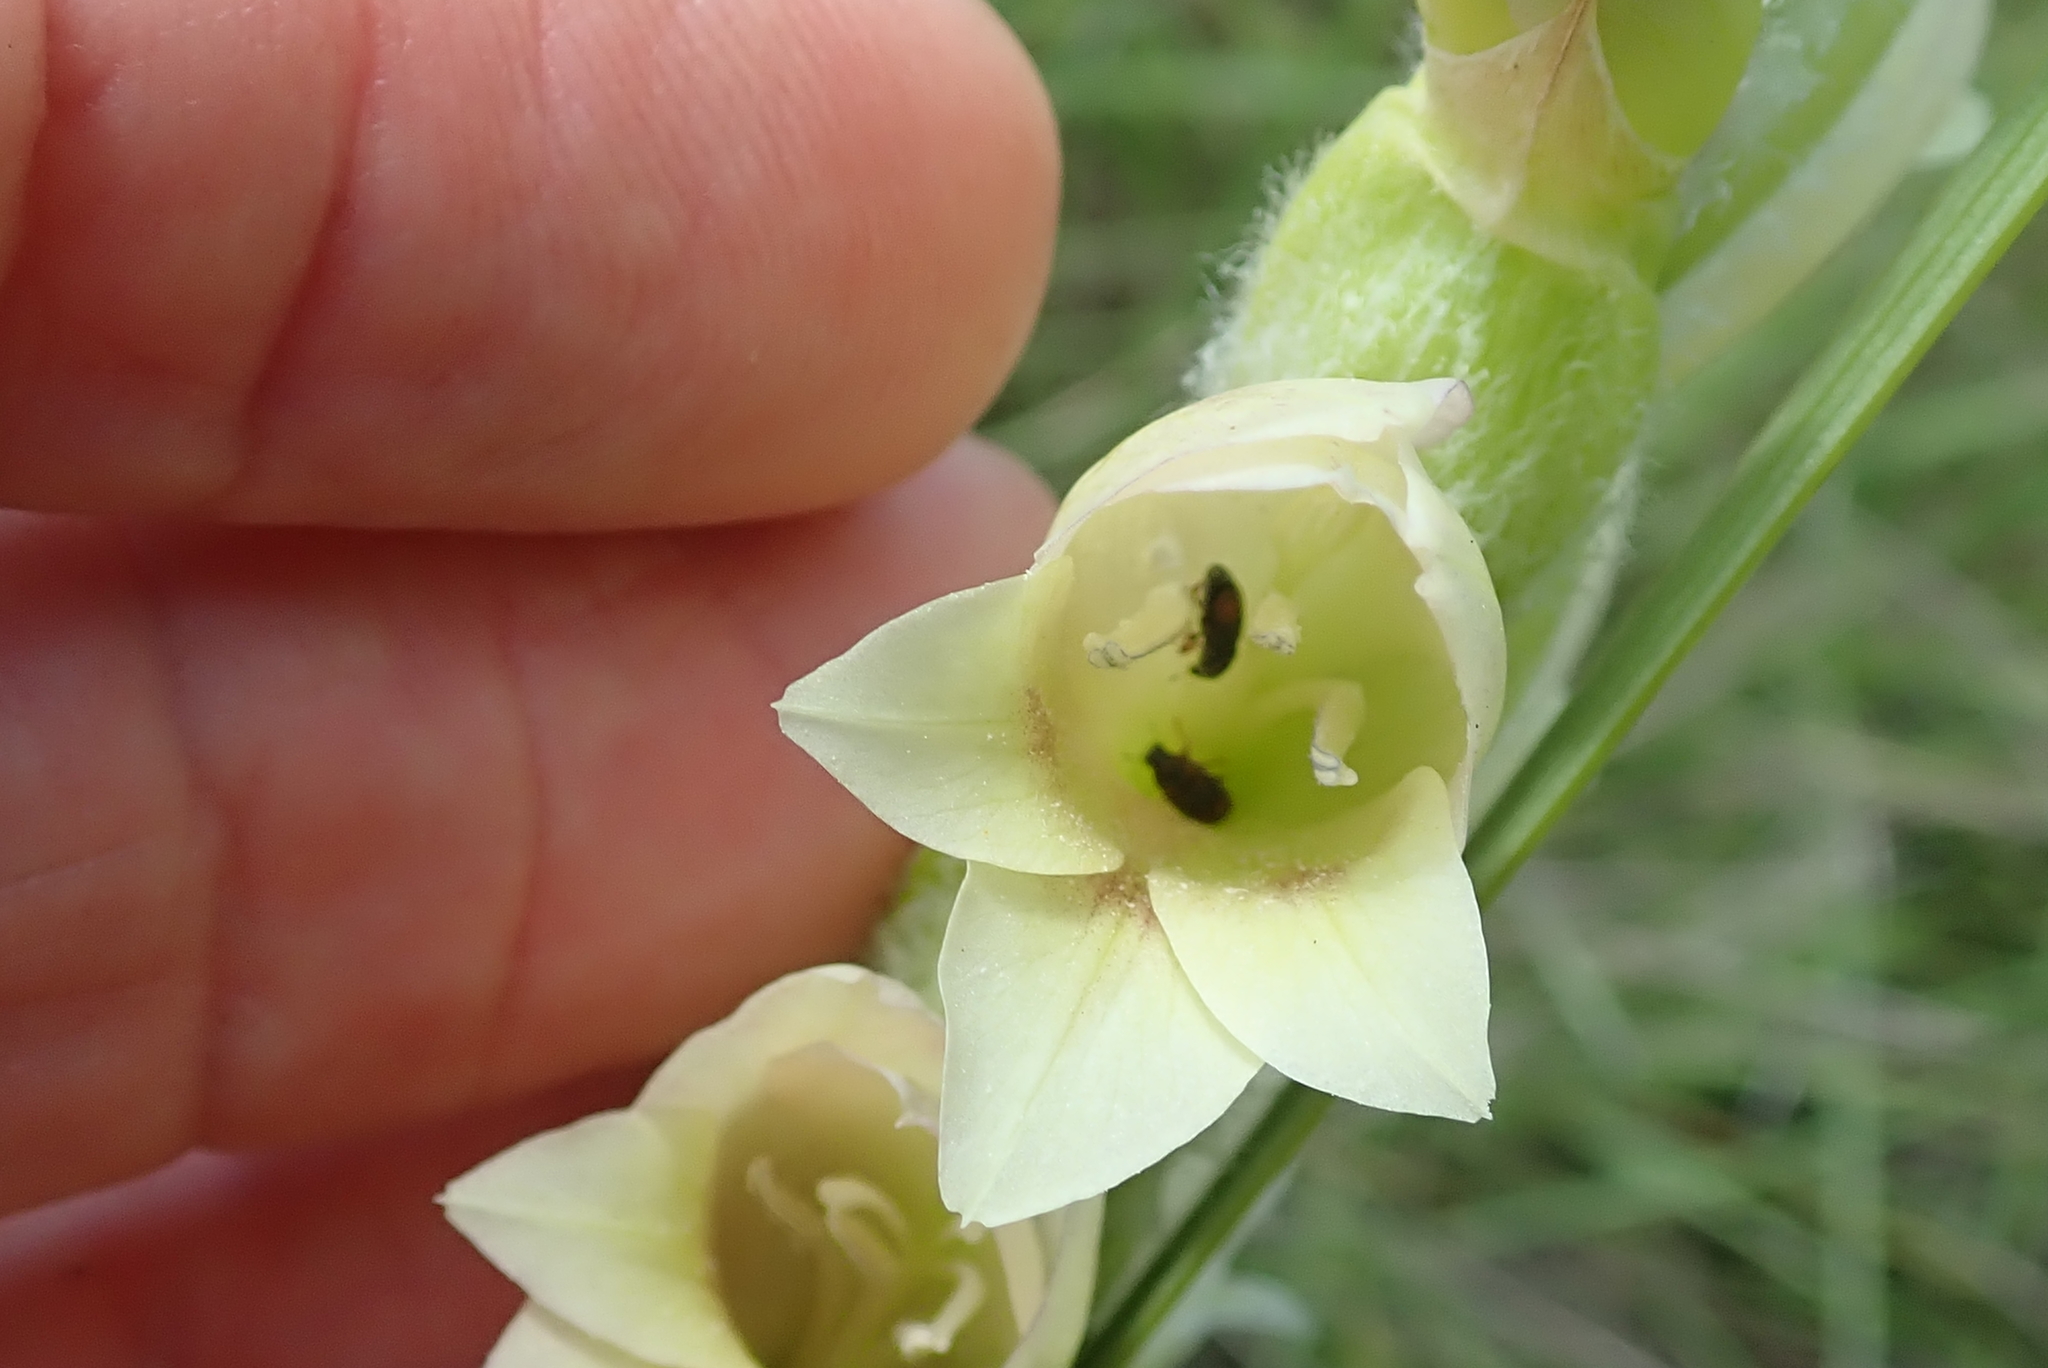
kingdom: Plantae
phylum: Tracheophyta
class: Liliopsida
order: Asparagales
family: Iridaceae
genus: Gladiolus
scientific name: Gladiolus sericeovillosus
